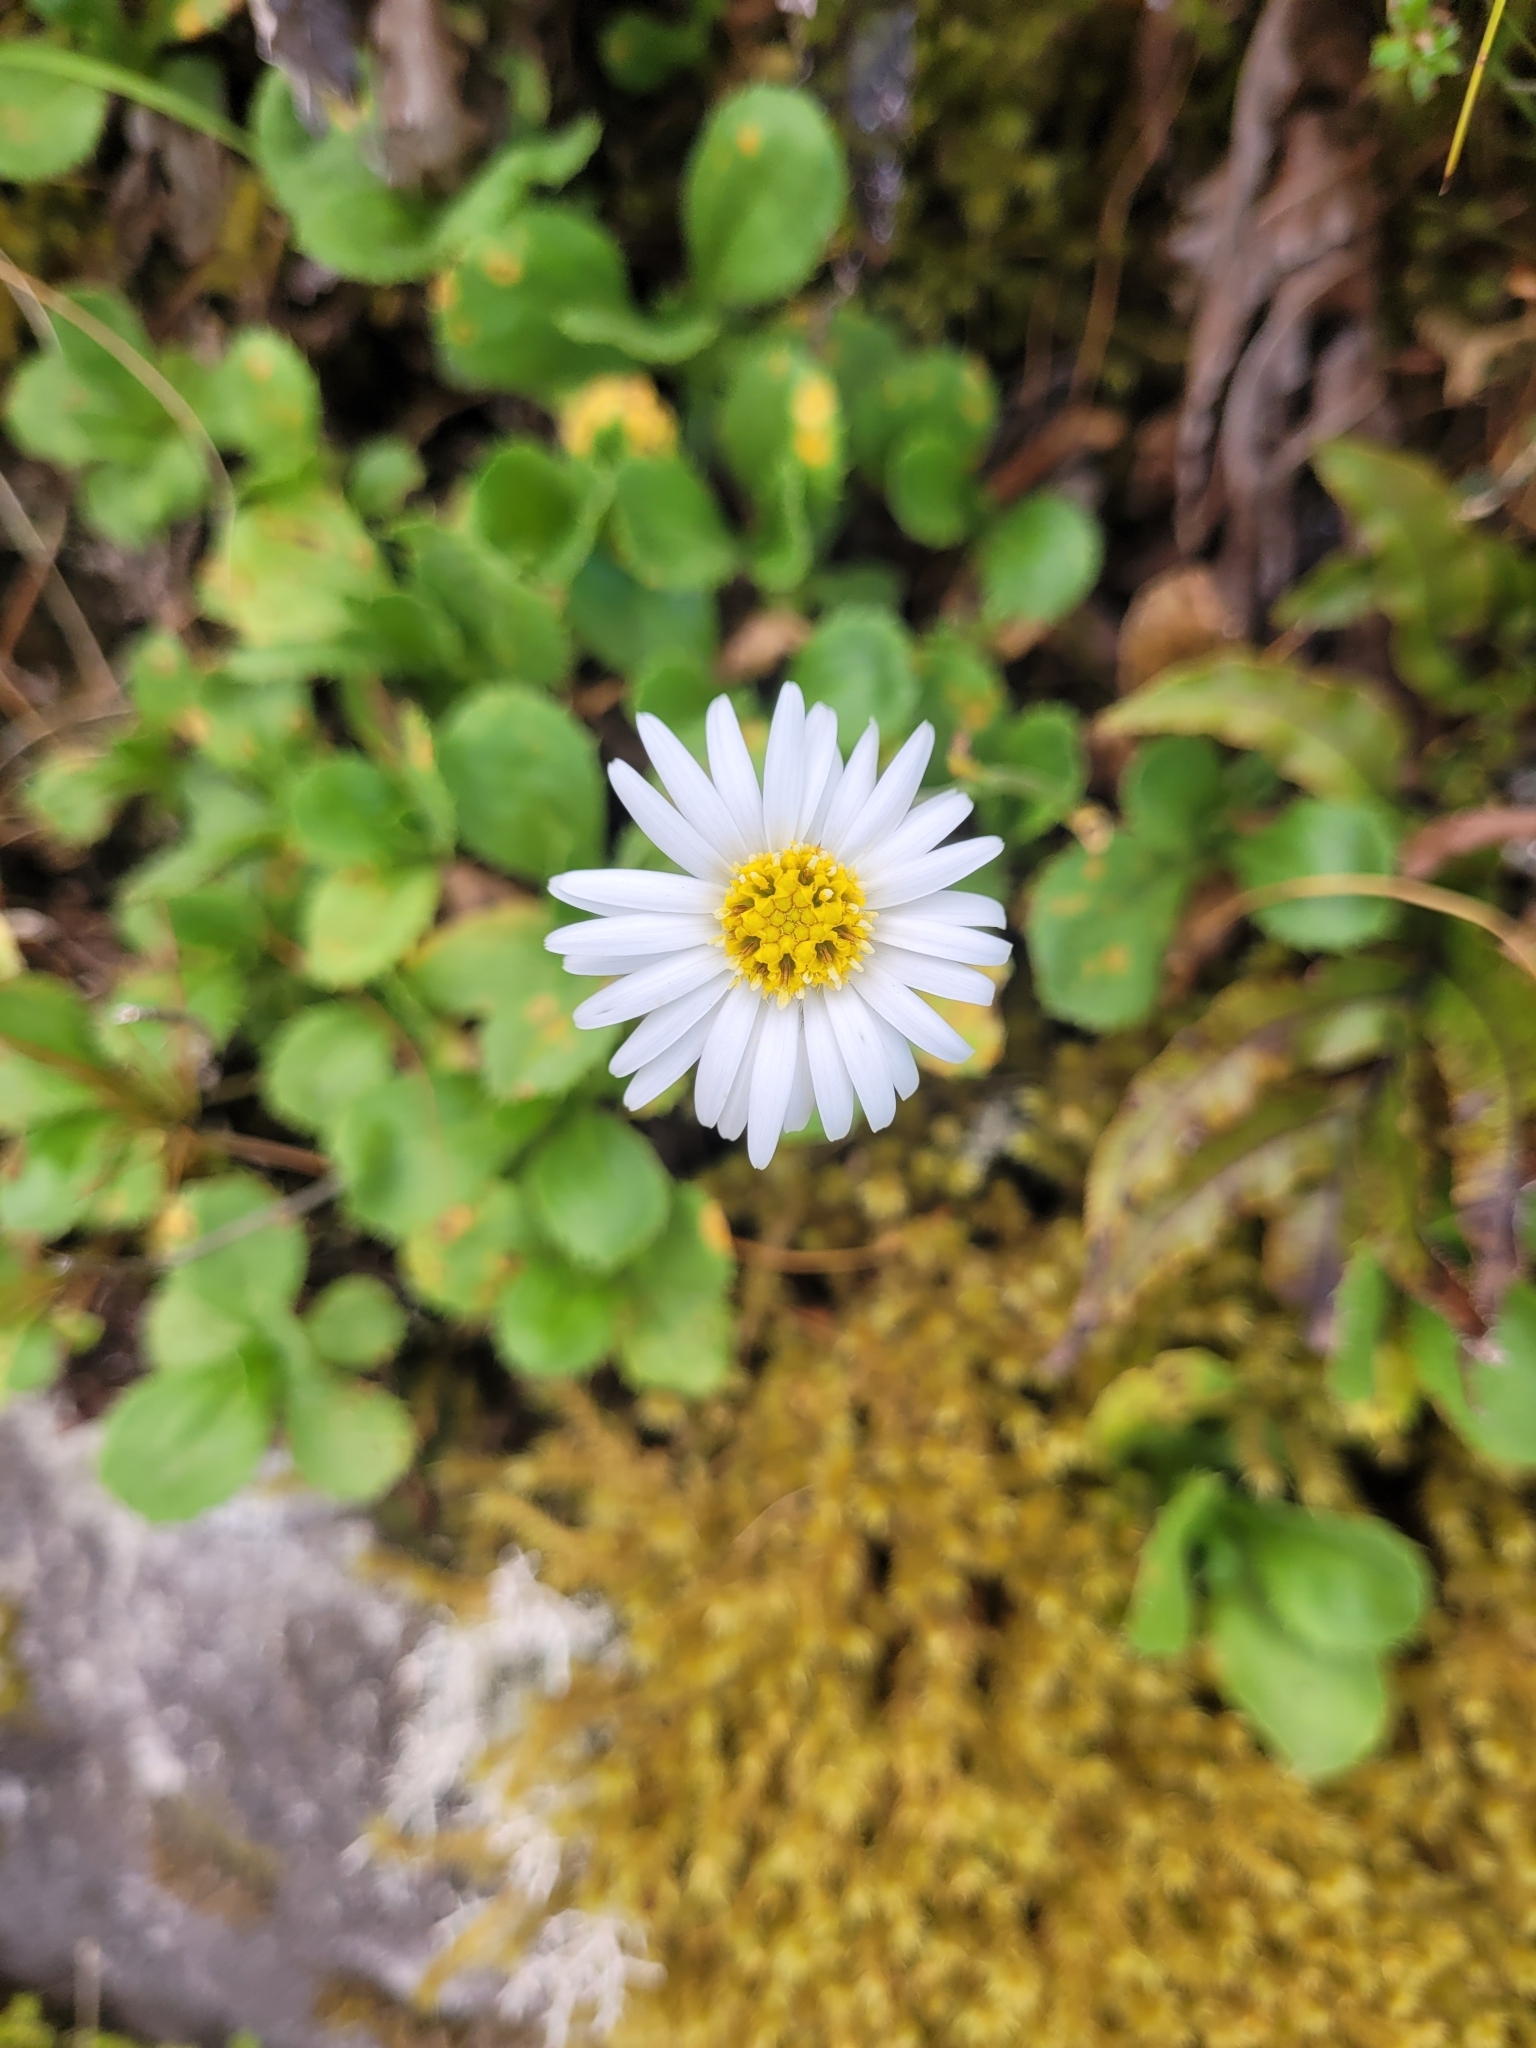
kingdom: Plantae
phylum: Tracheophyta
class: Magnoliopsida
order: Asterales
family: Asteraceae
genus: Celmisia
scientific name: Celmisia glandulosa
